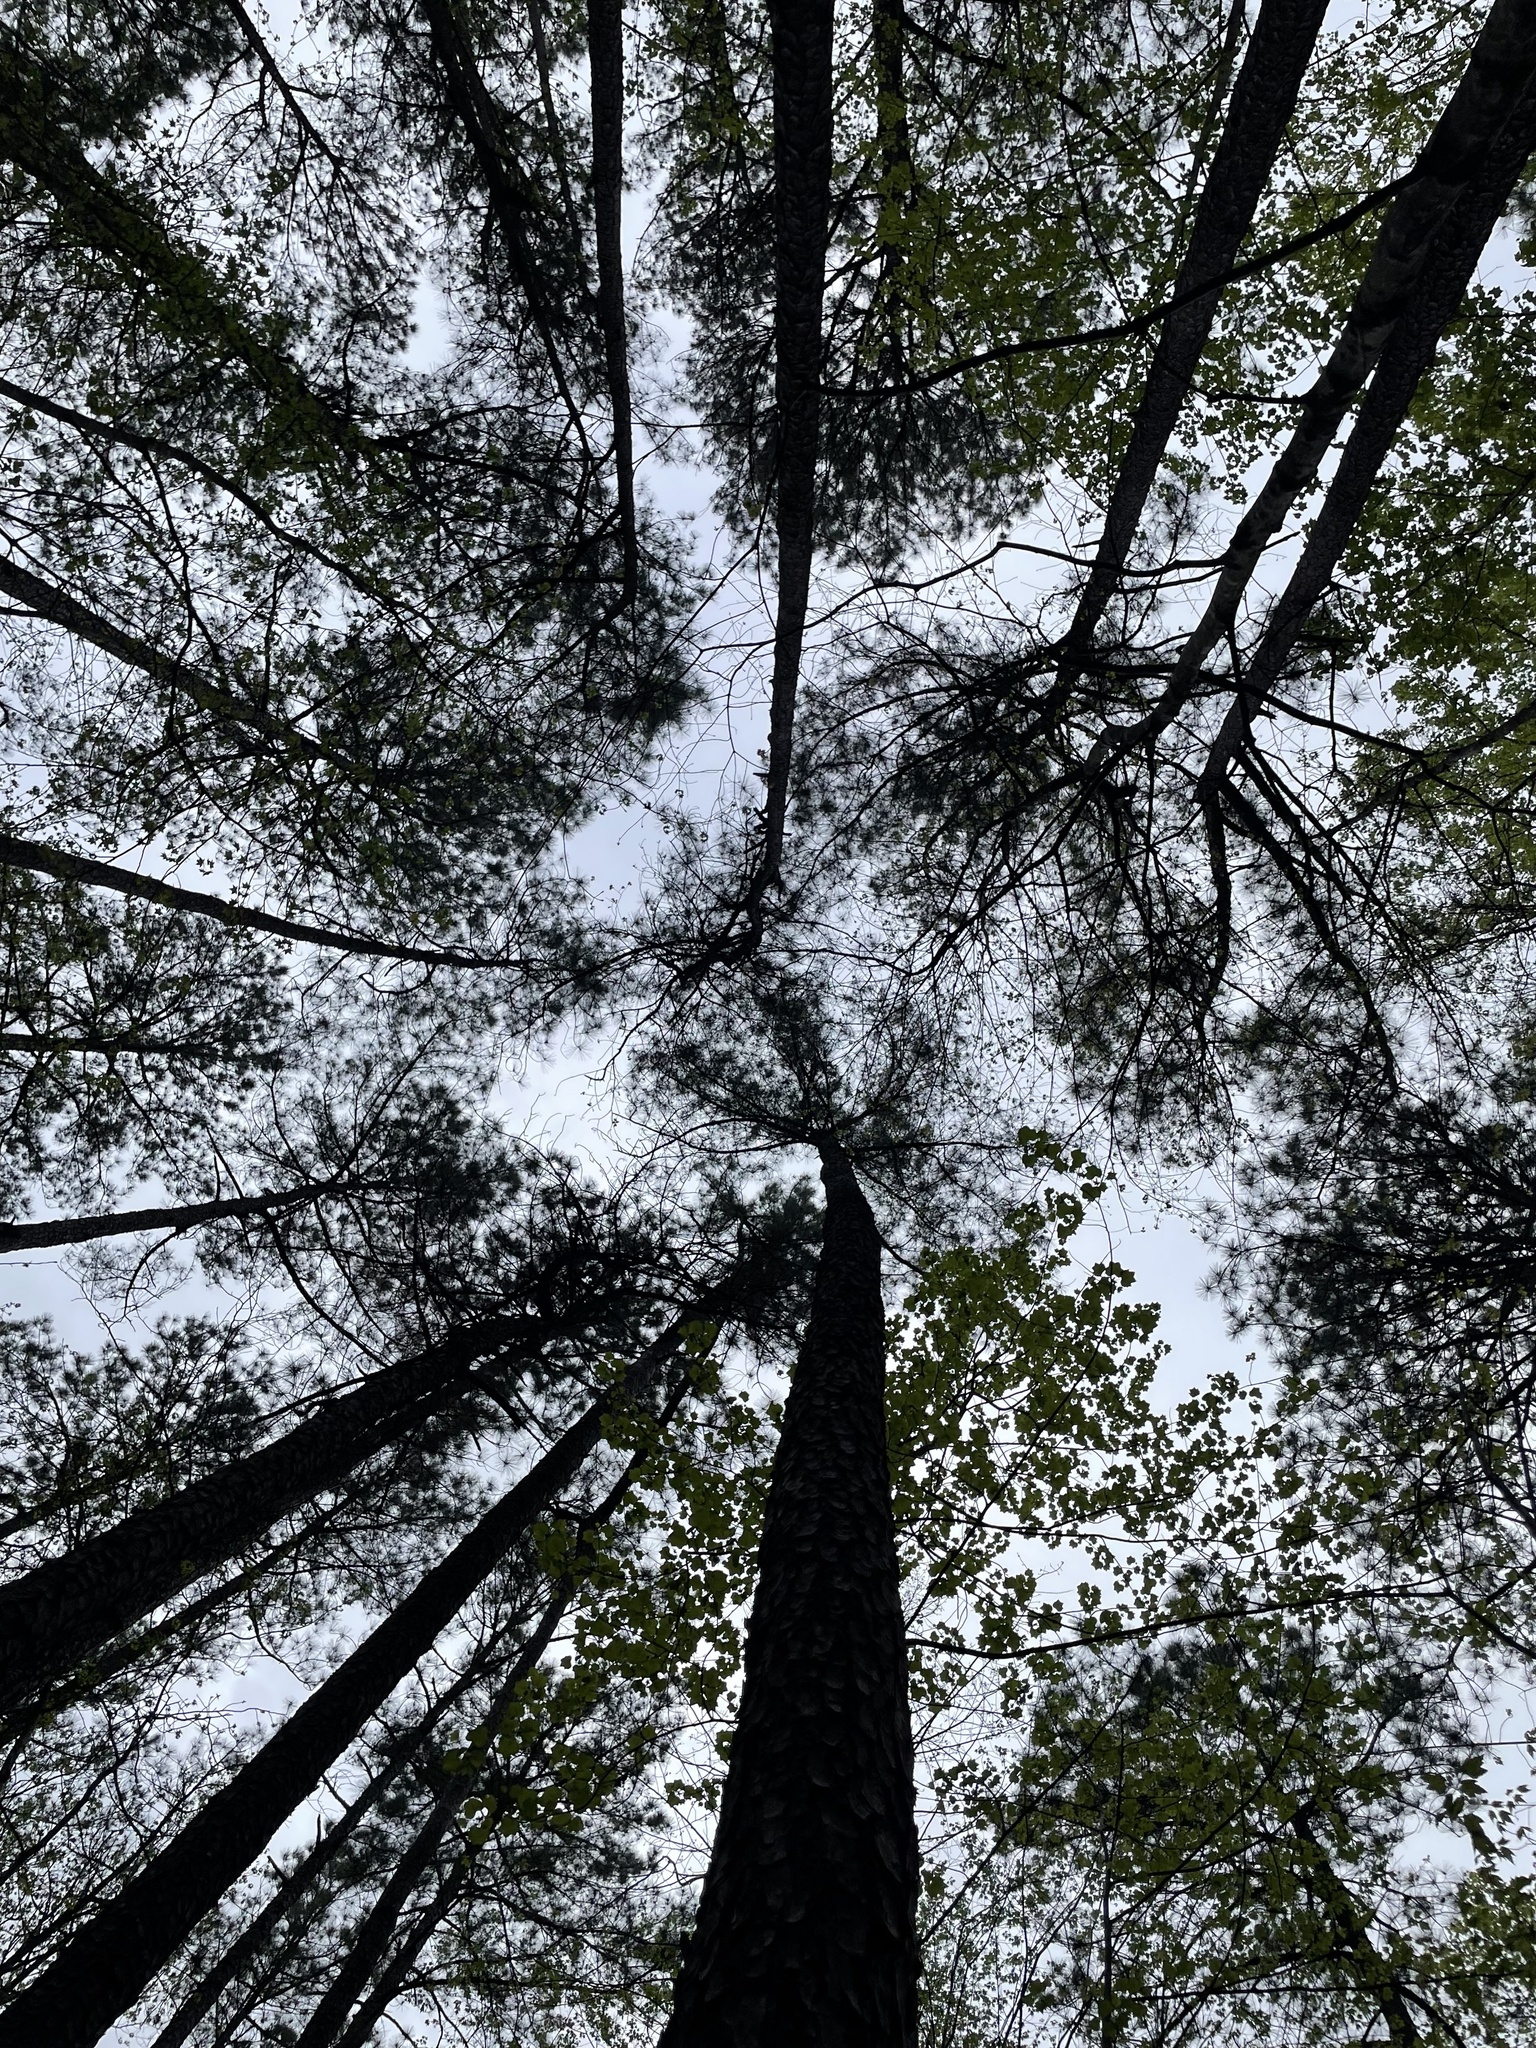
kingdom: Plantae
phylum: Tracheophyta
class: Pinopsida
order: Pinales
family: Pinaceae
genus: Pinus
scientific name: Pinus taeda
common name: Loblolly pine
